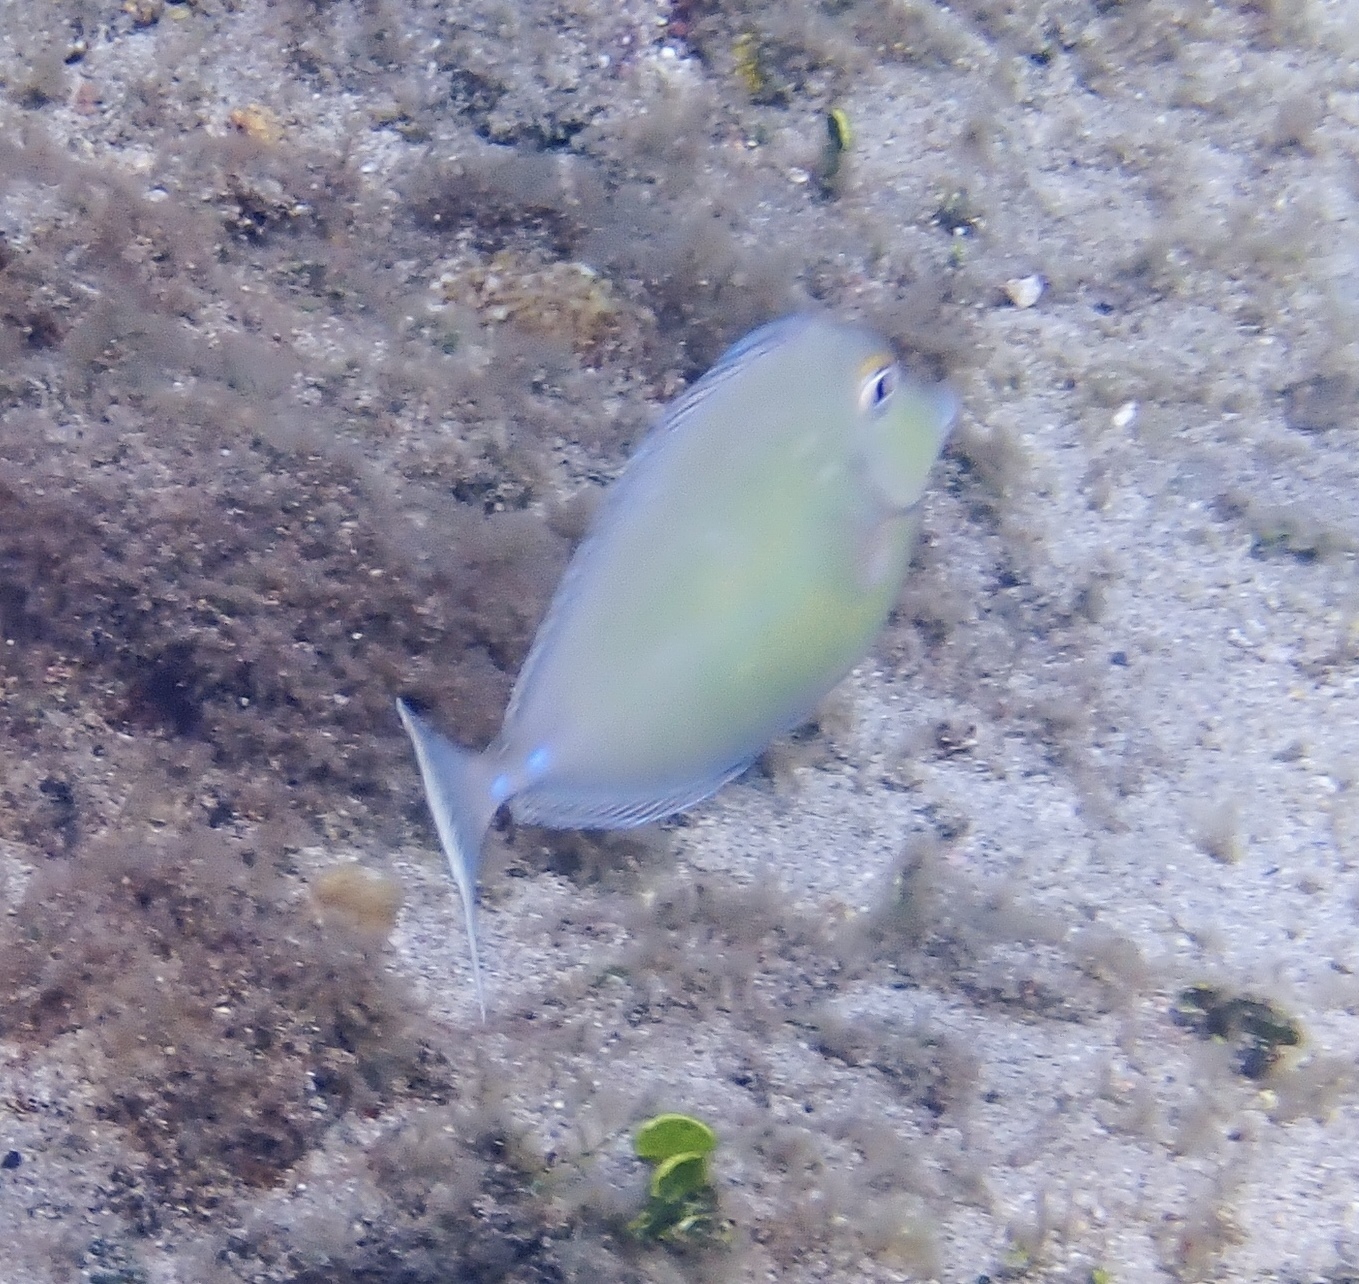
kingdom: Animalia
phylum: Chordata
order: Perciformes
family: Acanthuridae
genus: Naso
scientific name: Naso unicornis
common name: Bluespine unicornfish
